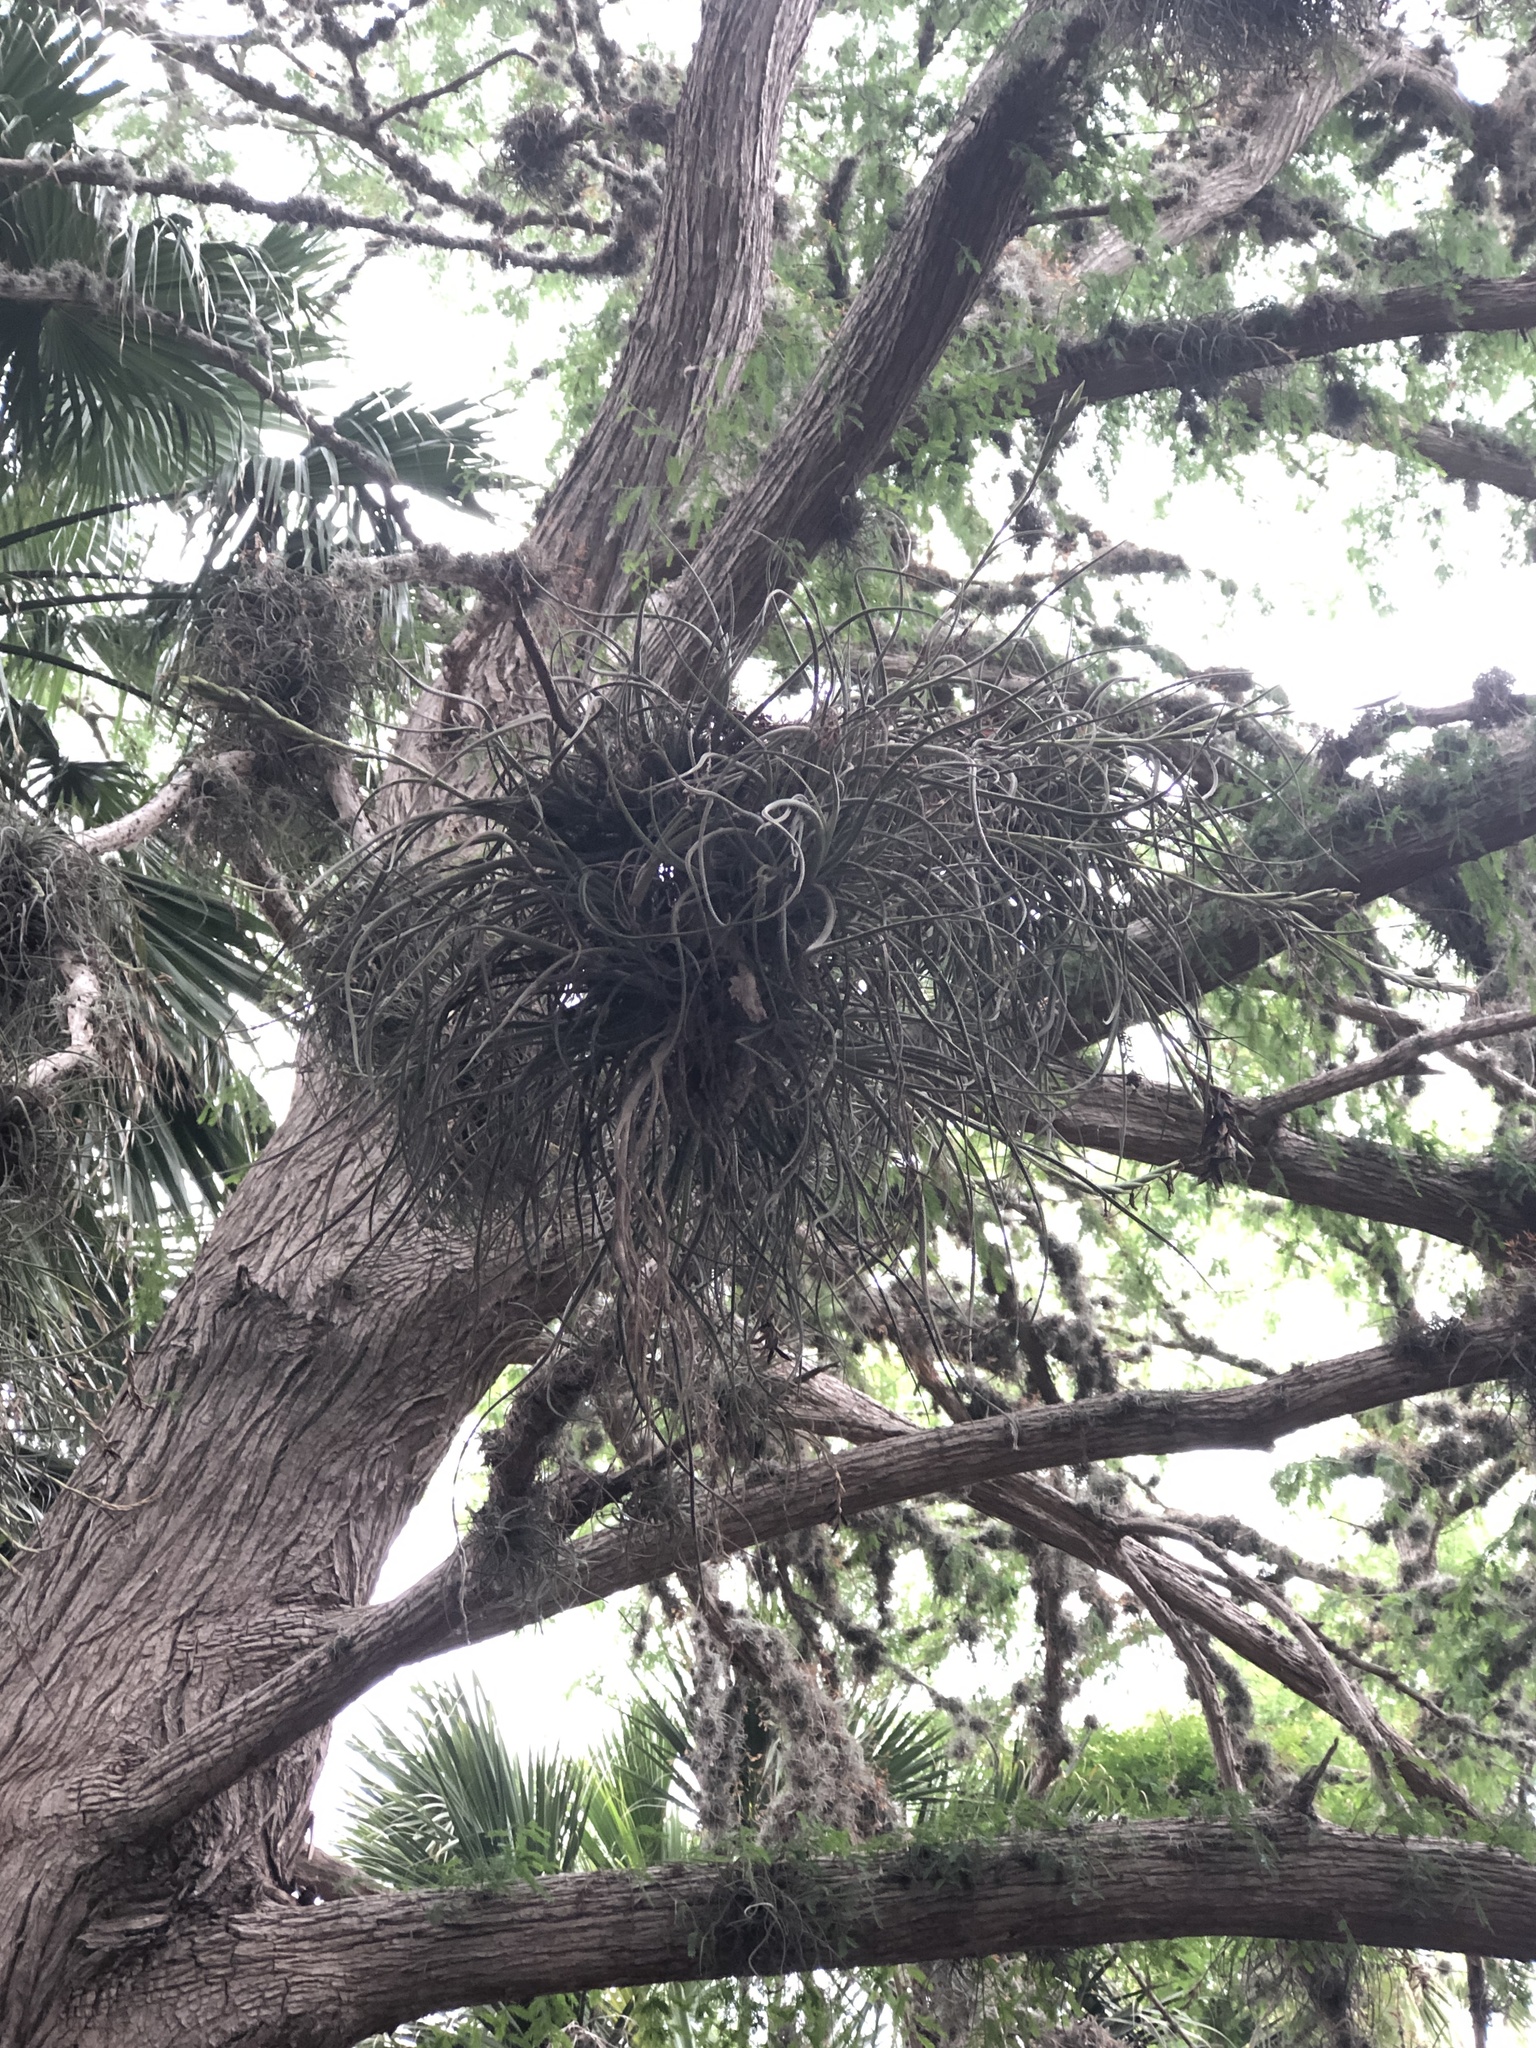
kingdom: Plantae
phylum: Tracheophyta
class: Liliopsida
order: Poales
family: Bromeliaceae
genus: Tillandsia
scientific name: Tillandsia baileyi
